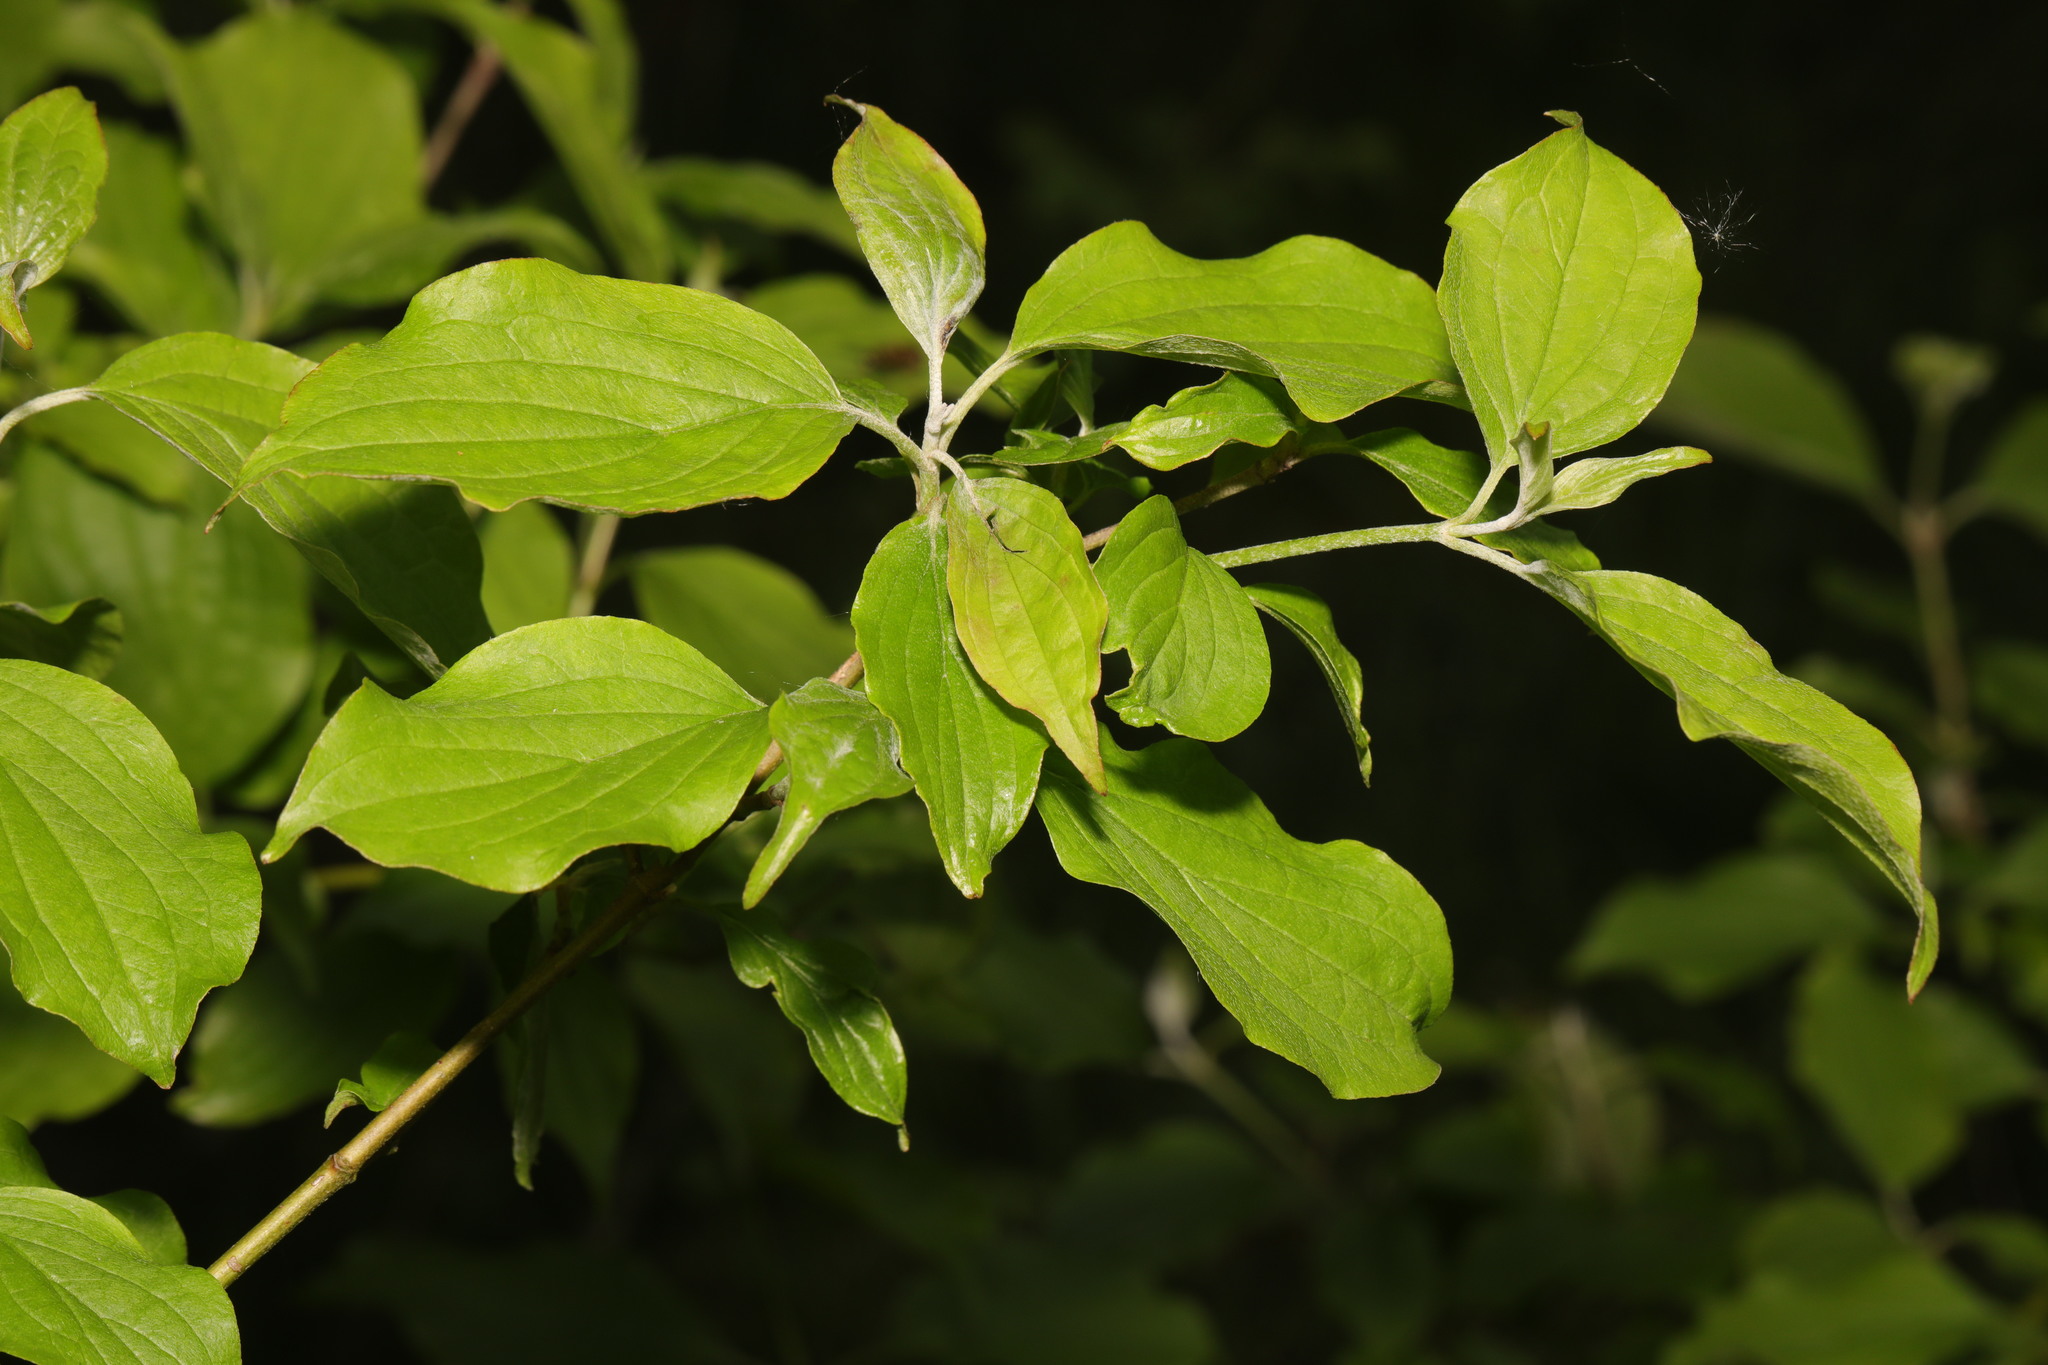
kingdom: Plantae
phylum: Tracheophyta
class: Magnoliopsida
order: Cornales
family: Cornaceae
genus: Cornus
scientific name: Cornus sanguinea
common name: Dogwood
